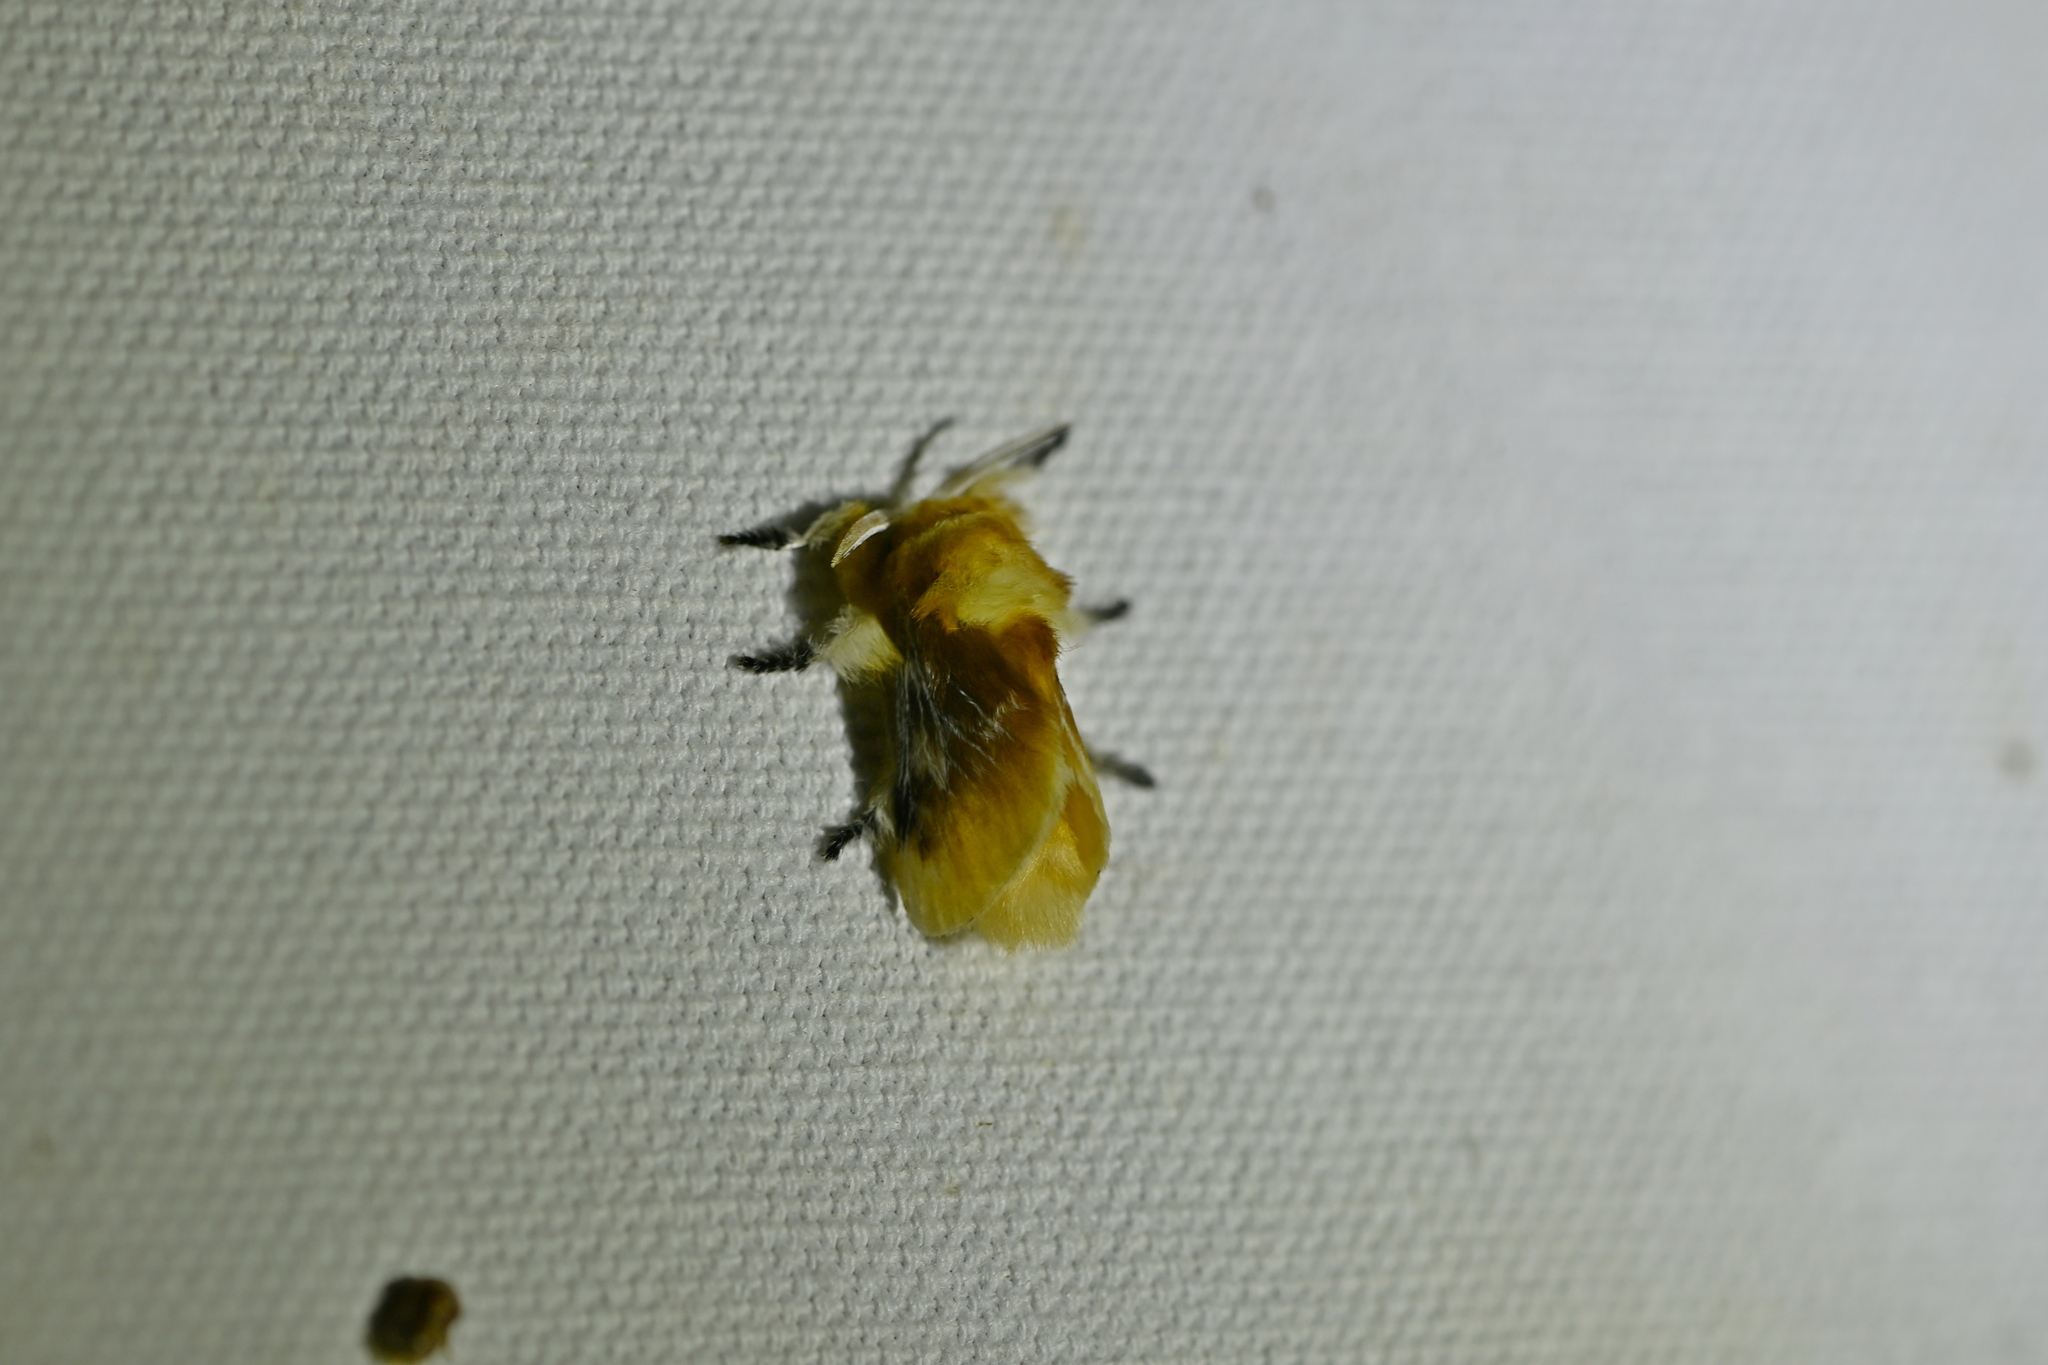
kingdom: Animalia
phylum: Arthropoda
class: Insecta
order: Lepidoptera
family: Megalopygidae
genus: Megalopyge
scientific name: Megalopyge opercularis
